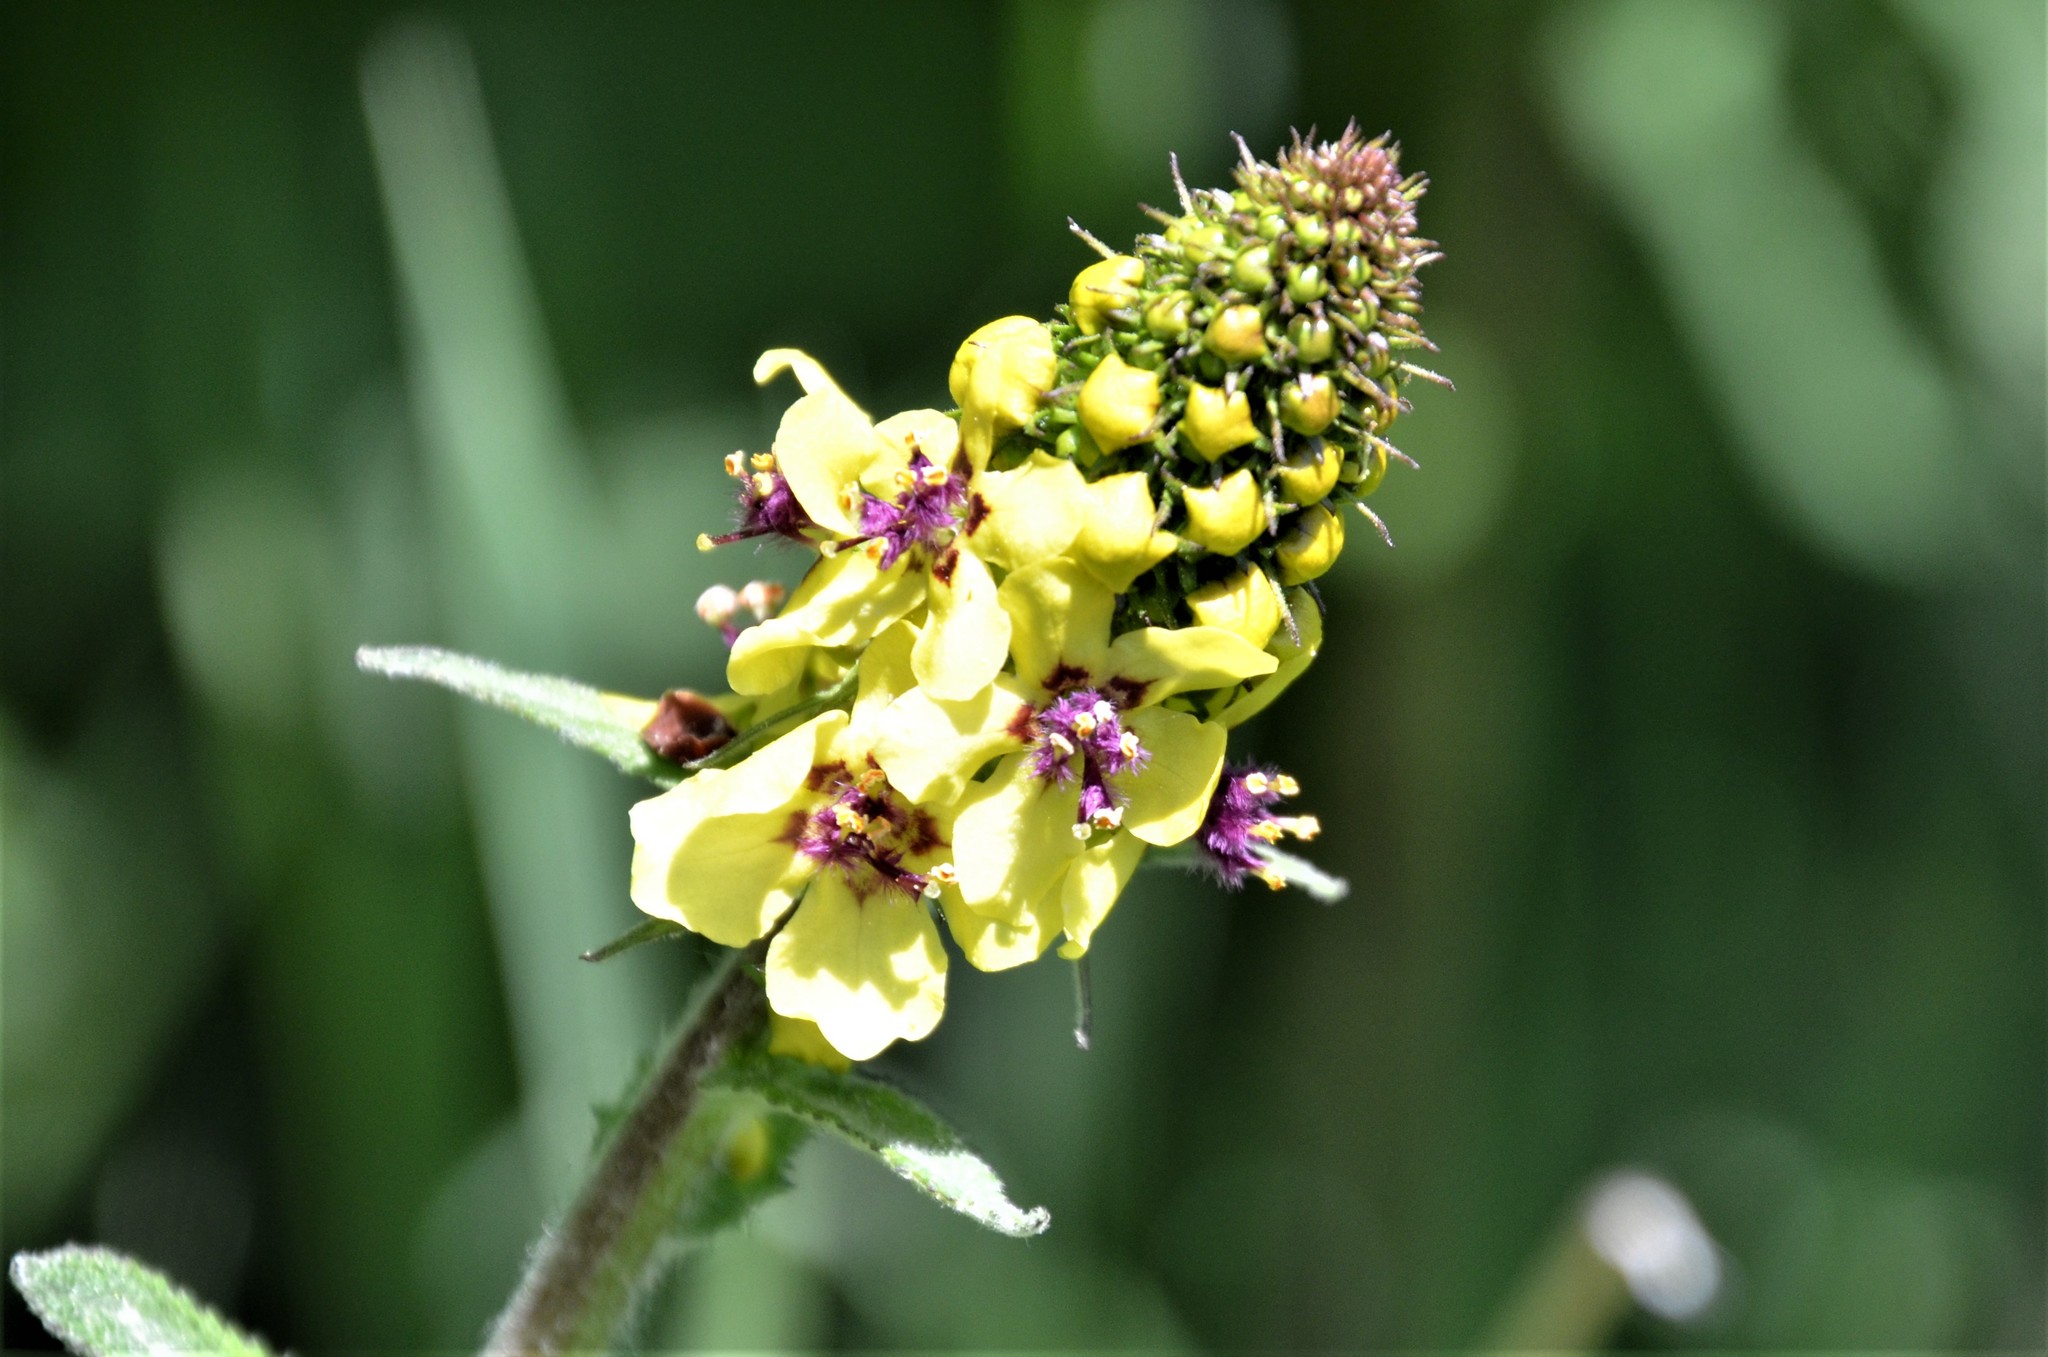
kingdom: Plantae
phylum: Tracheophyta
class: Magnoliopsida
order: Lamiales
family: Scrophulariaceae
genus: Verbascum
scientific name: Verbascum alpinum
